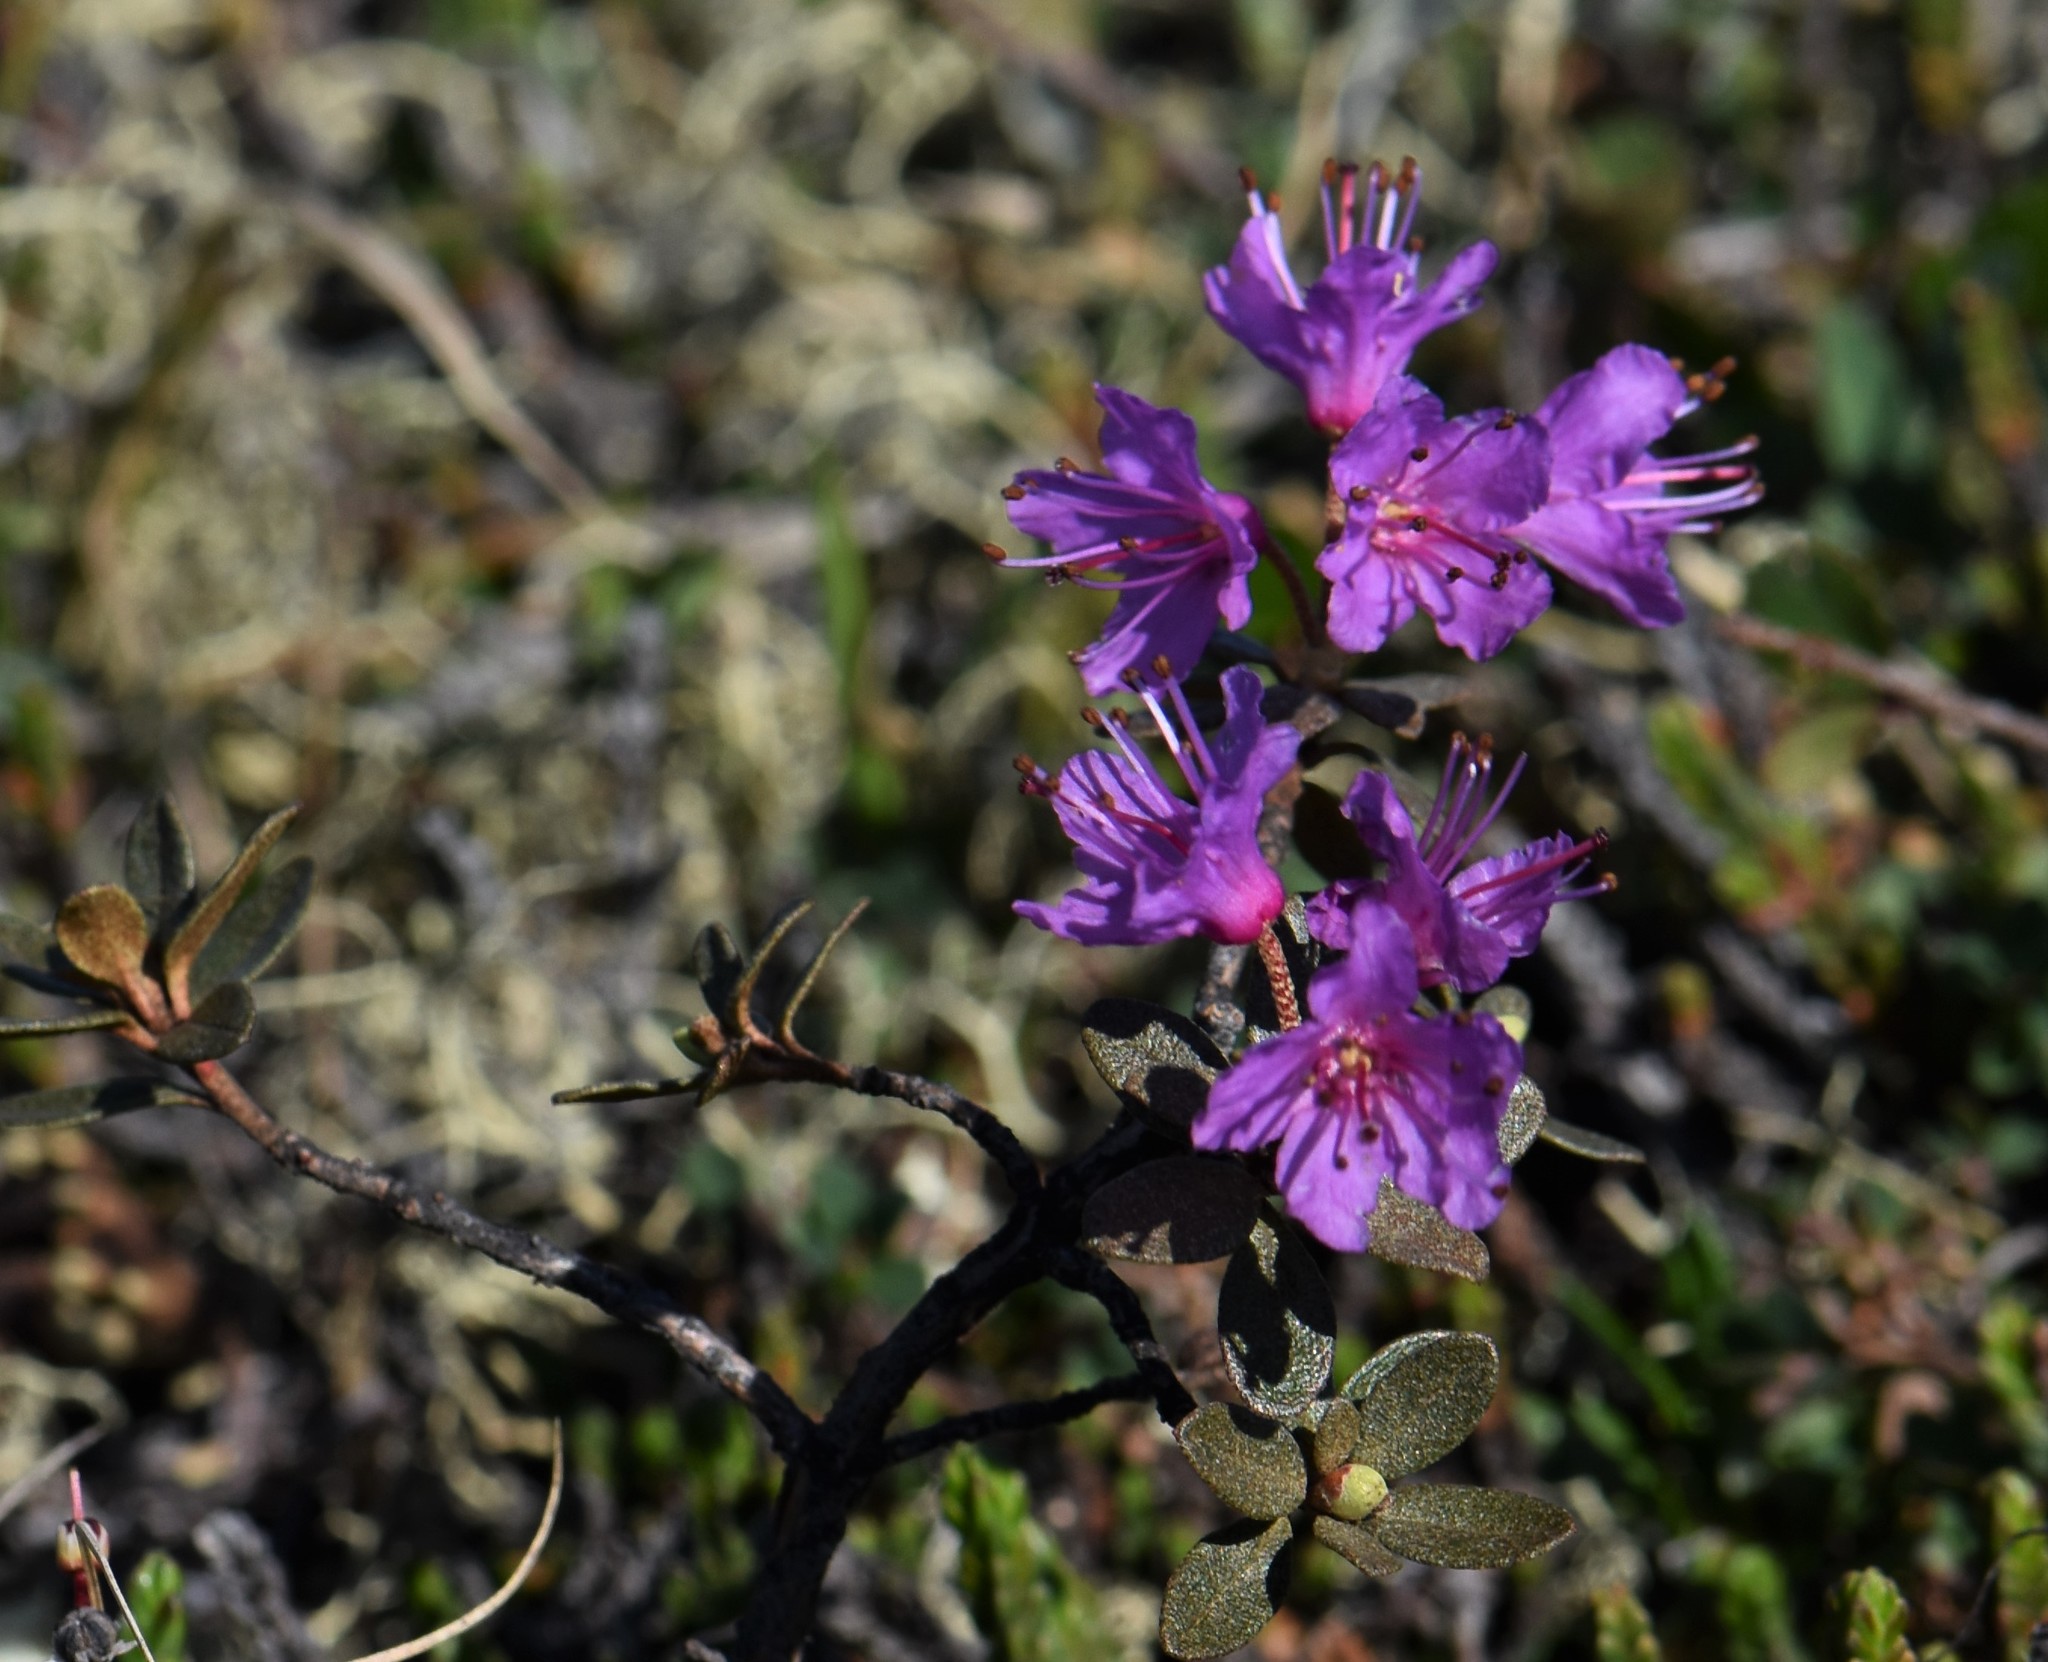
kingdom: Plantae
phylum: Tracheophyta
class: Magnoliopsida
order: Ericales
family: Ericaceae
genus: Rhododendron
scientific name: Rhododendron lapponicum
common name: Lapland rhododendron
